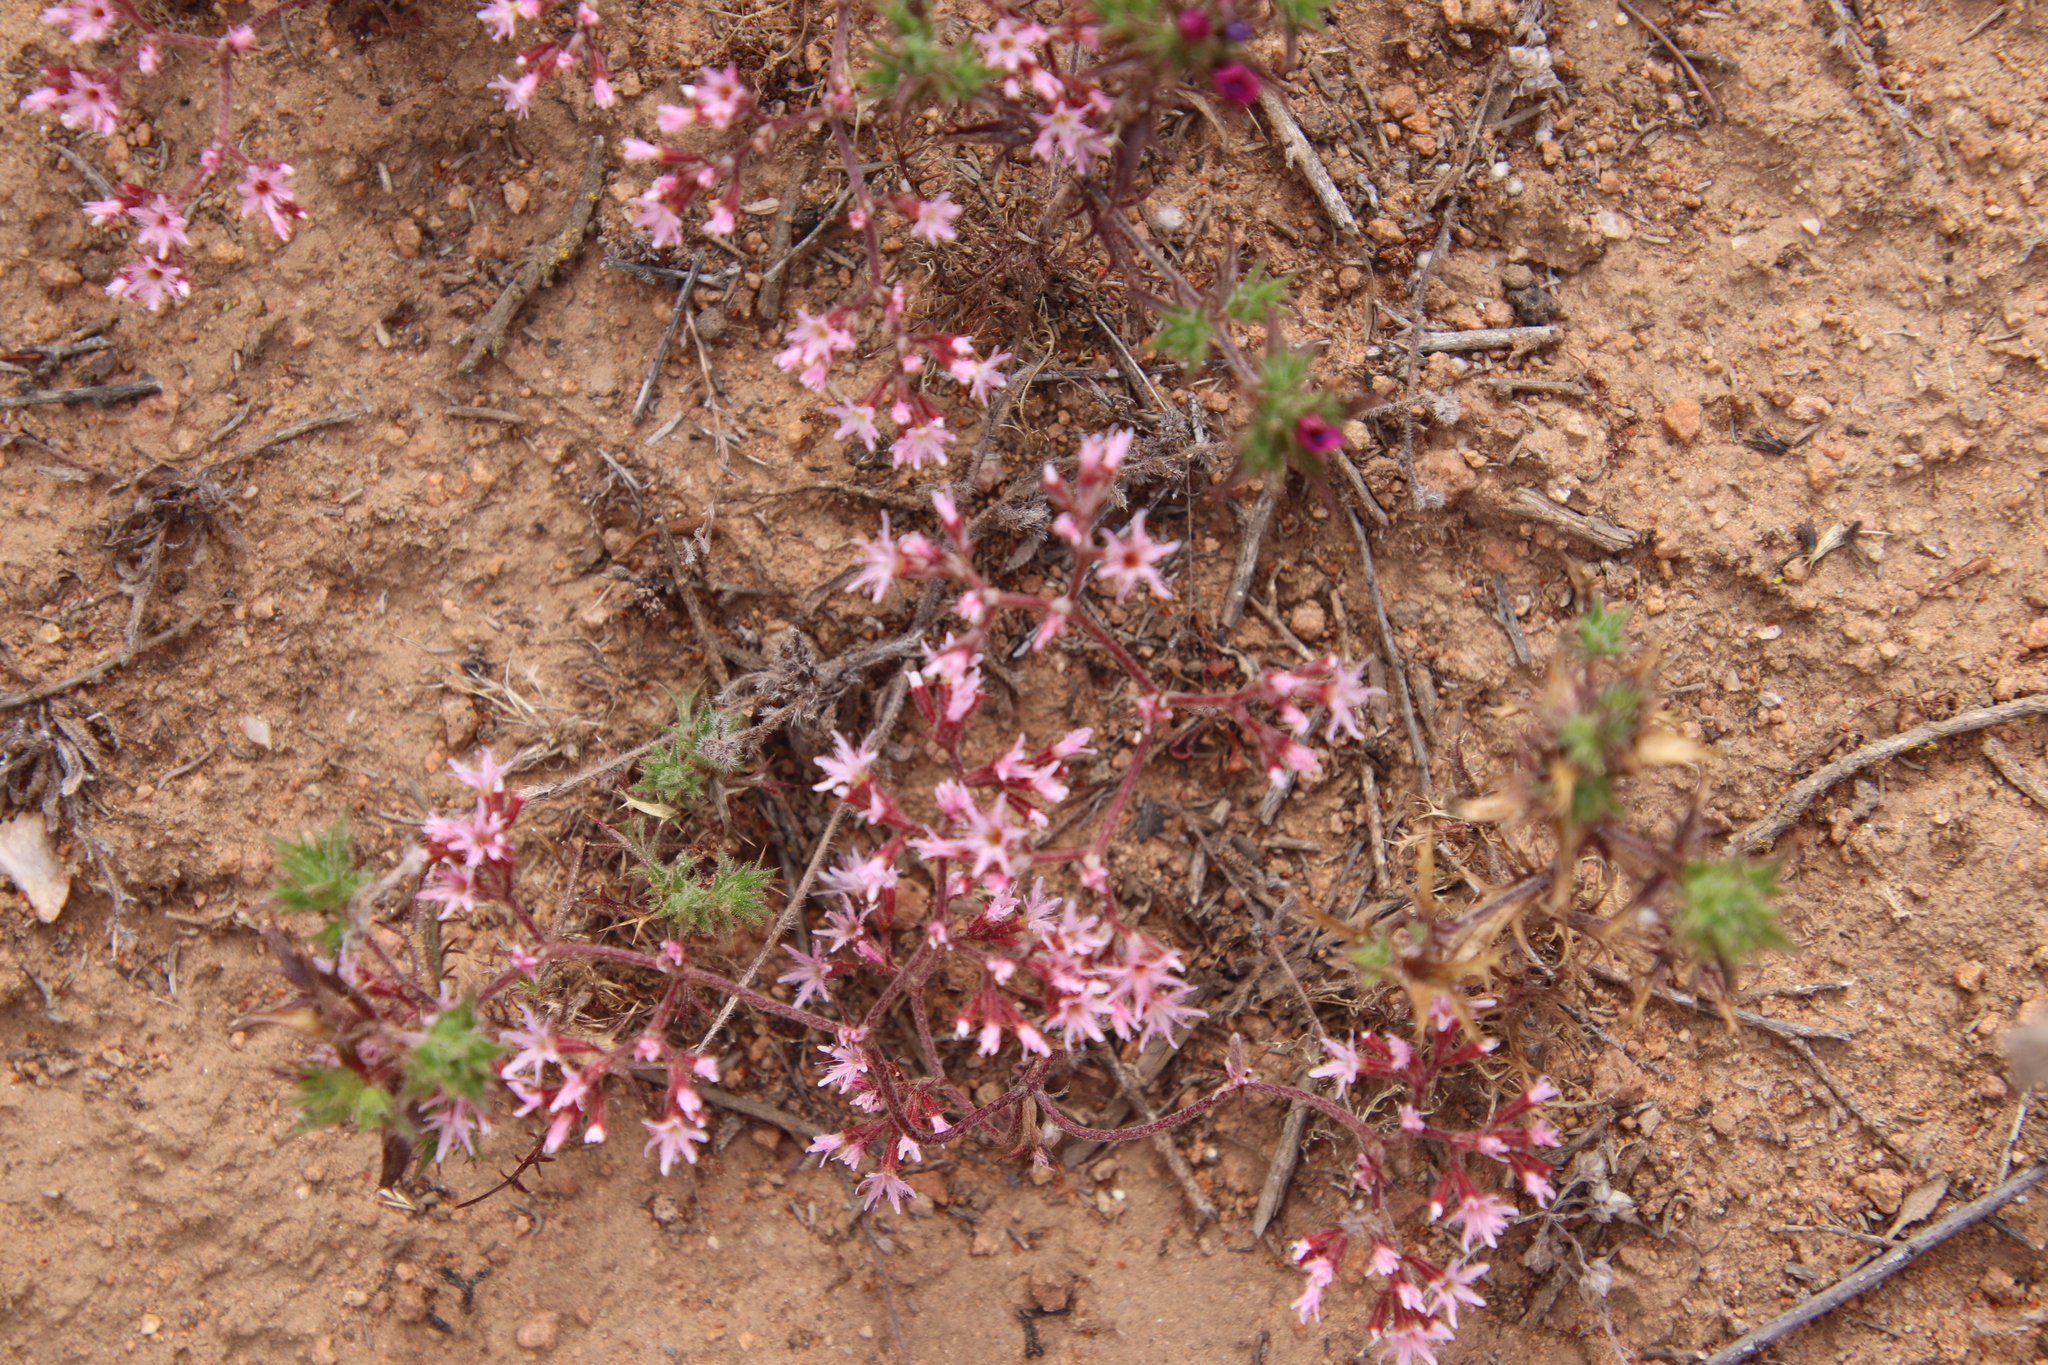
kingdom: Plantae
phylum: Tracheophyta
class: Magnoliopsida
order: Caryophyllales
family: Polygonaceae
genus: Chorizanthe
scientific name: Chorizanthe fimbriata
